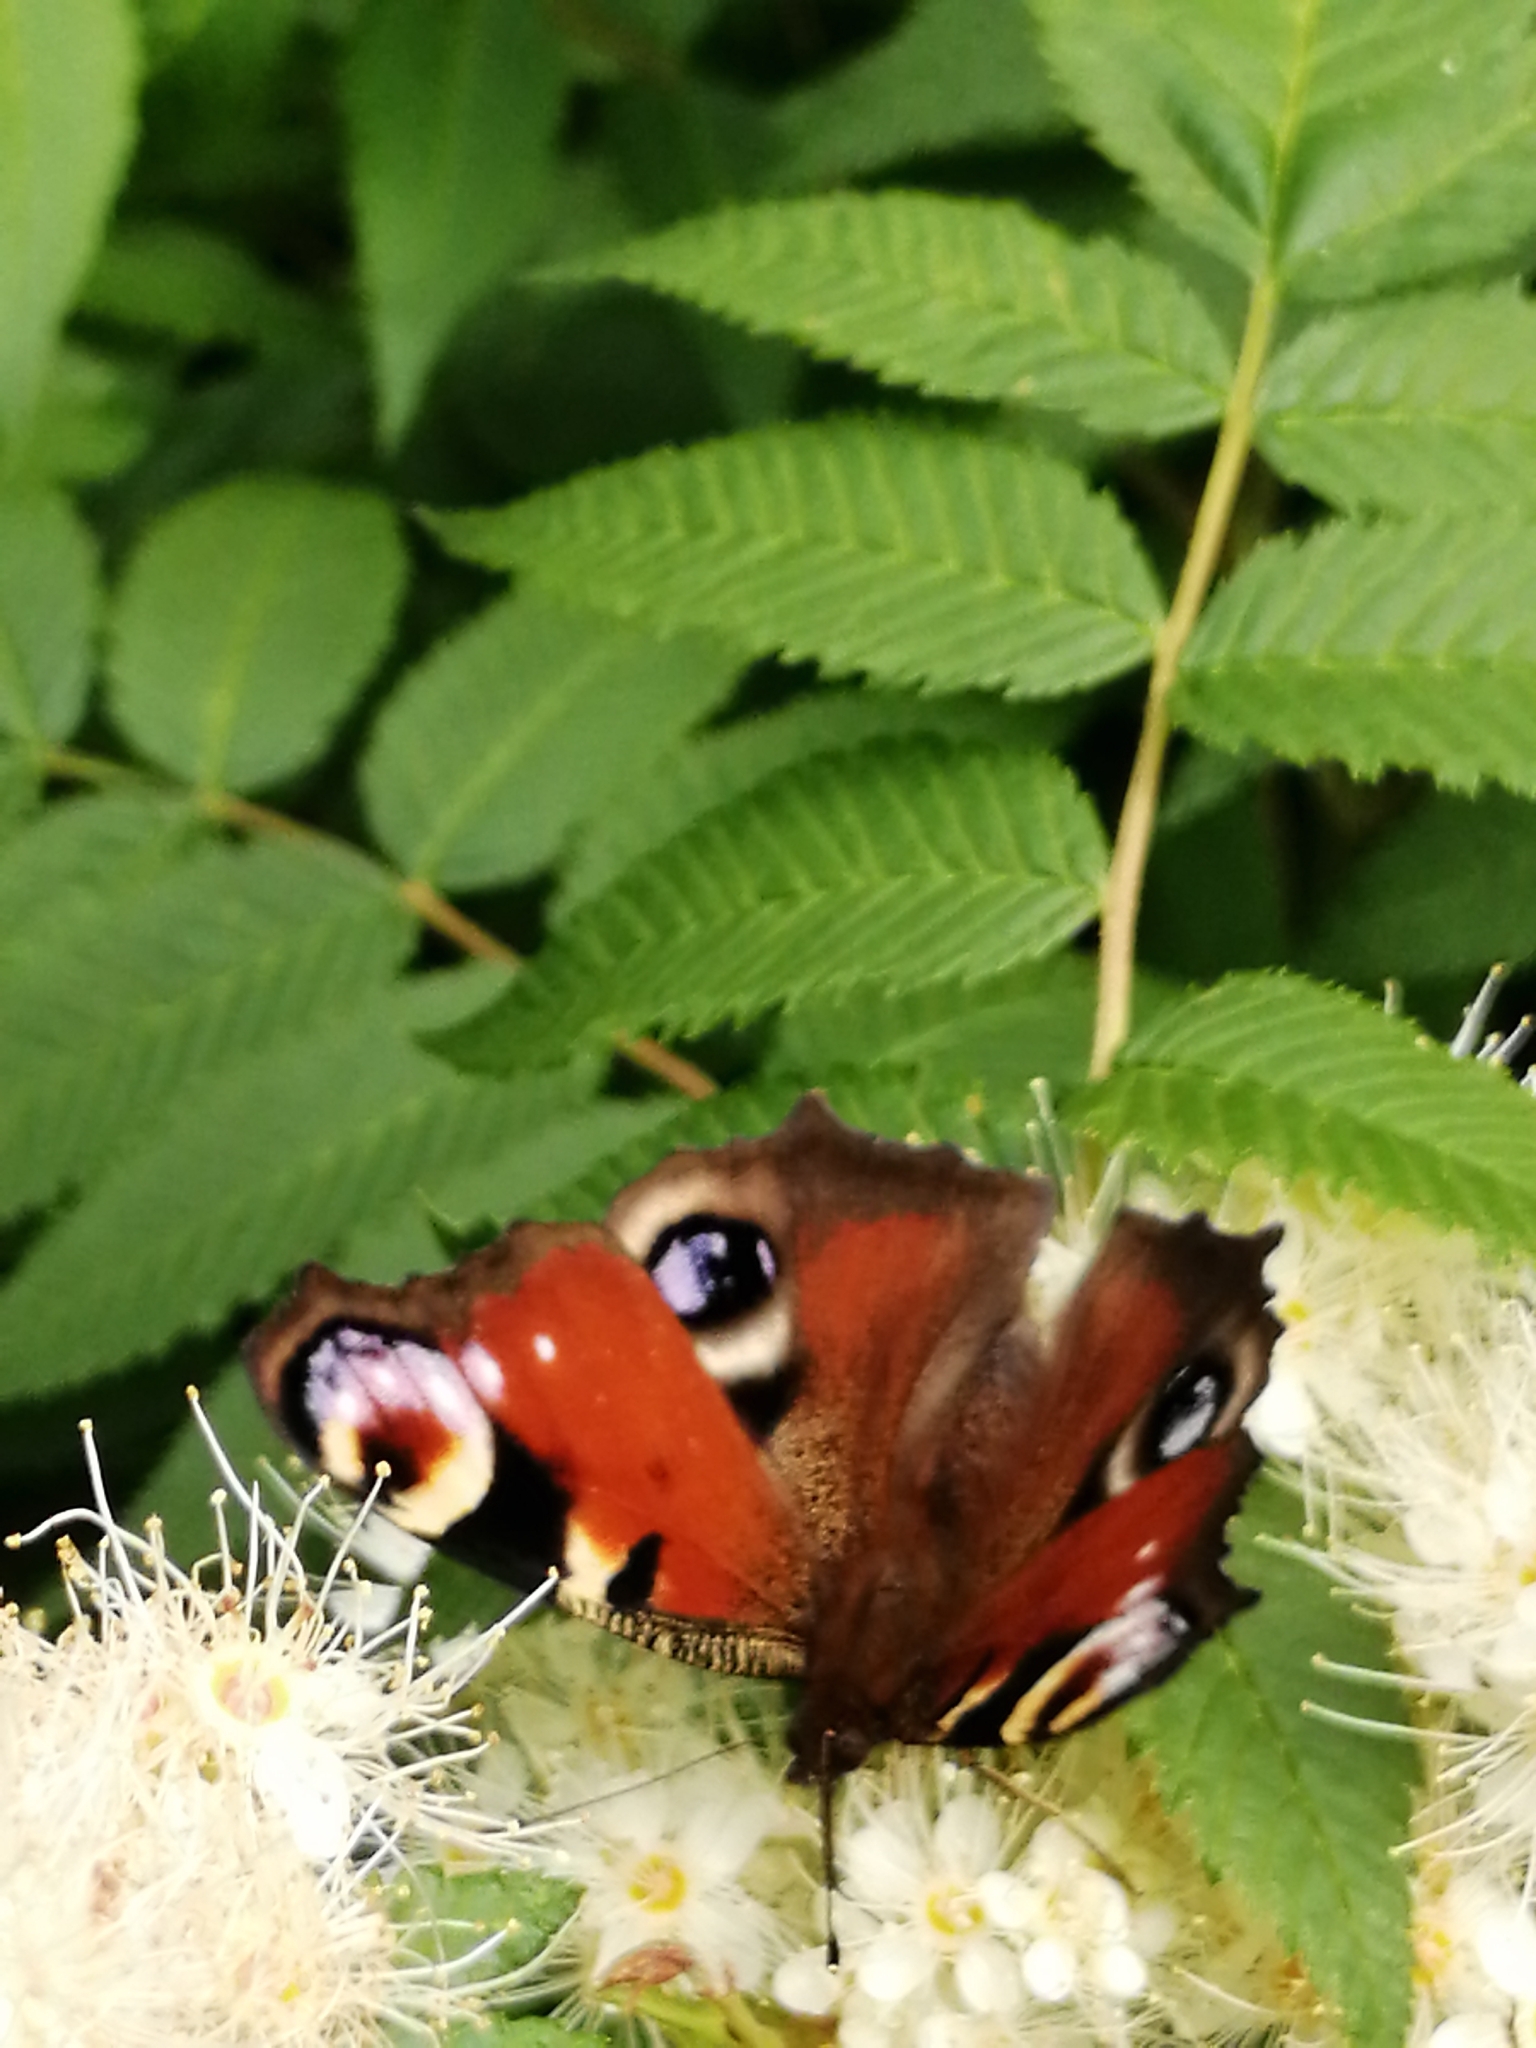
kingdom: Animalia
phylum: Arthropoda
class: Insecta
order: Lepidoptera
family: Nymphalidae
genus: Aglais
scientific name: Aglais io
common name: Peacock
